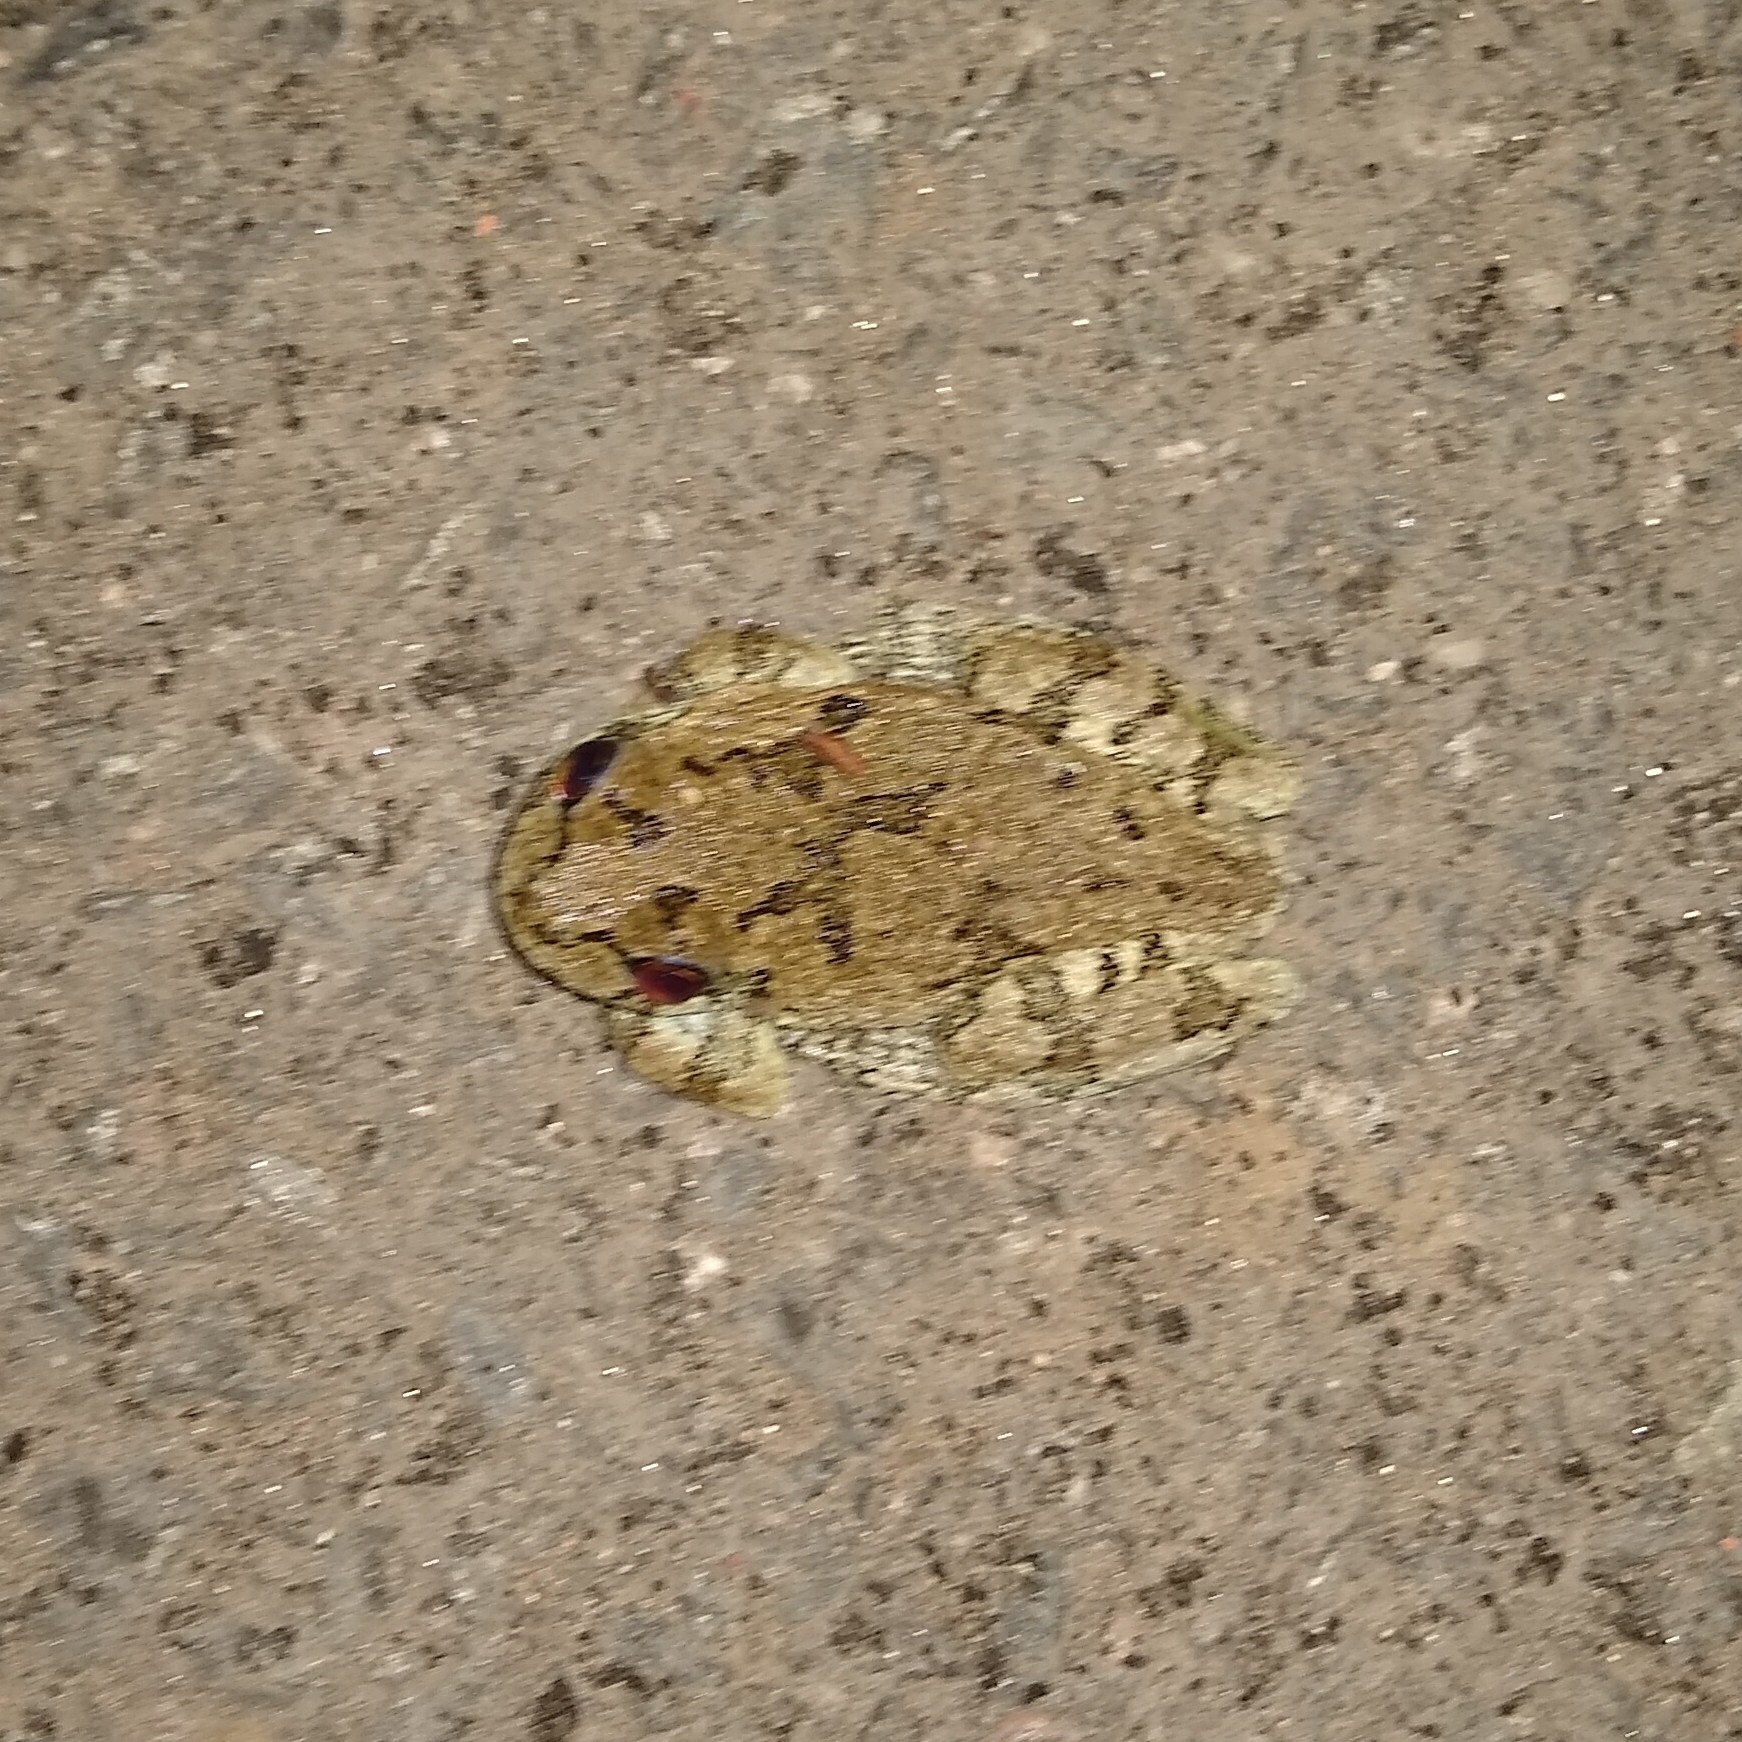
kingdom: Animalia
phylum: Chordata
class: Amphibia
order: Anura
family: Hylidae
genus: Dryophytes
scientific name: Dryophytes versicolor
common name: Gray treefrog
